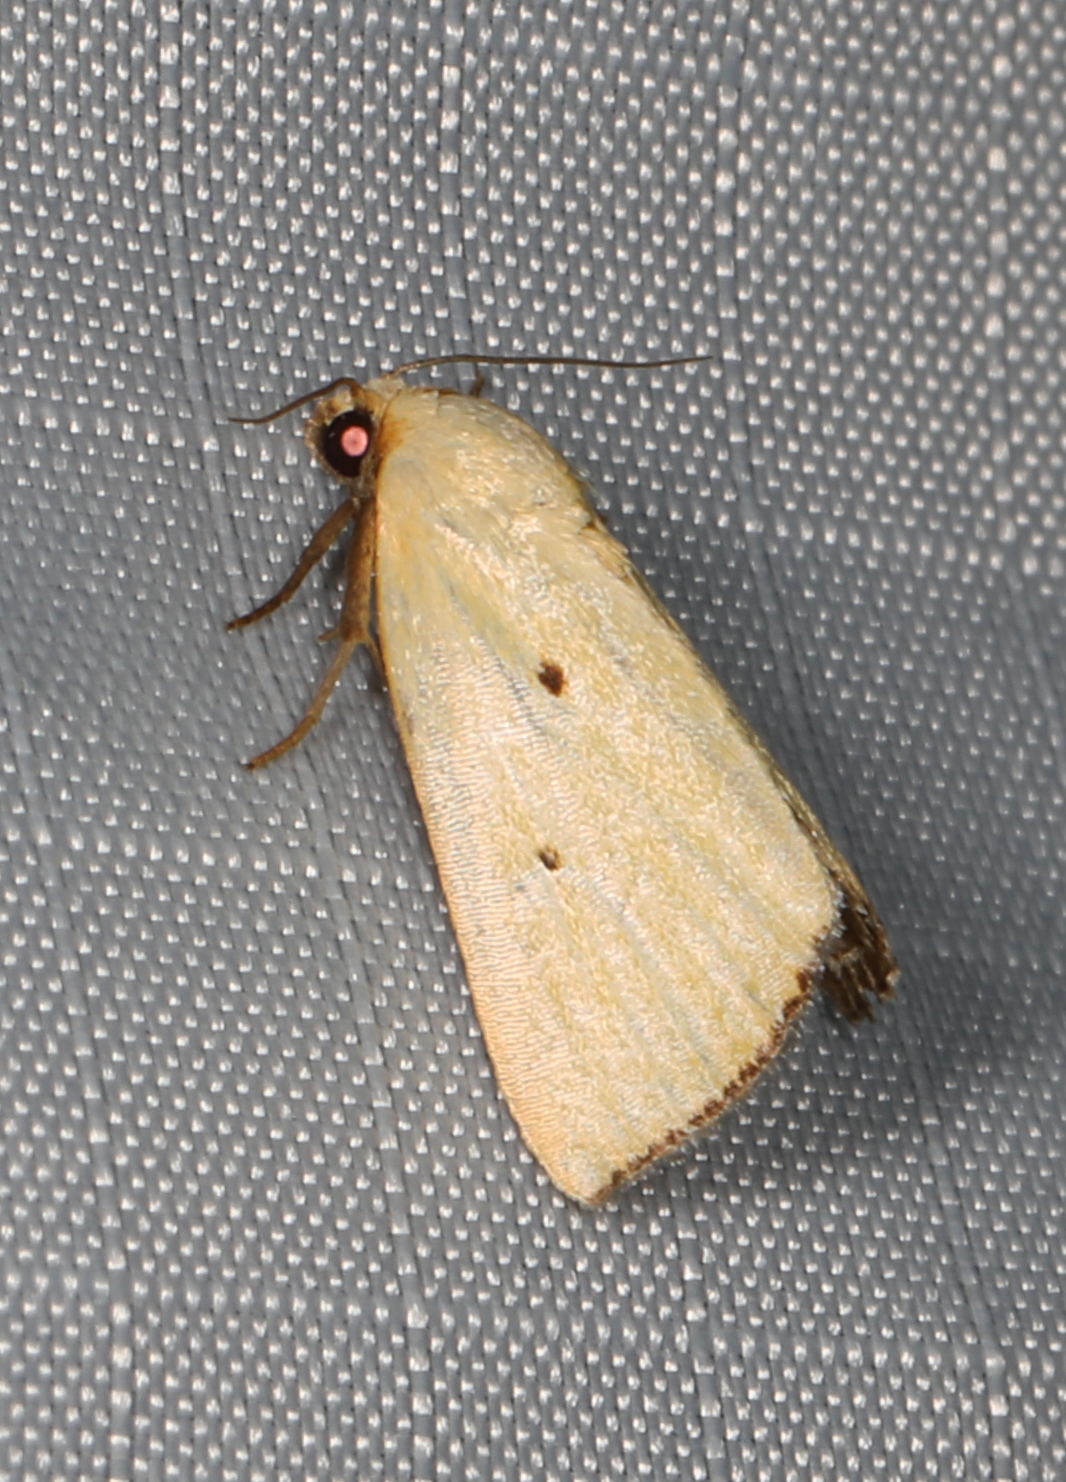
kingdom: Animalia
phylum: Arthropoda
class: Insecta
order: Lepidoptera
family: Noctuidae
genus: Marimatha
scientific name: Marimatha nigrofimbria
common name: Black-bordered lemon moth
